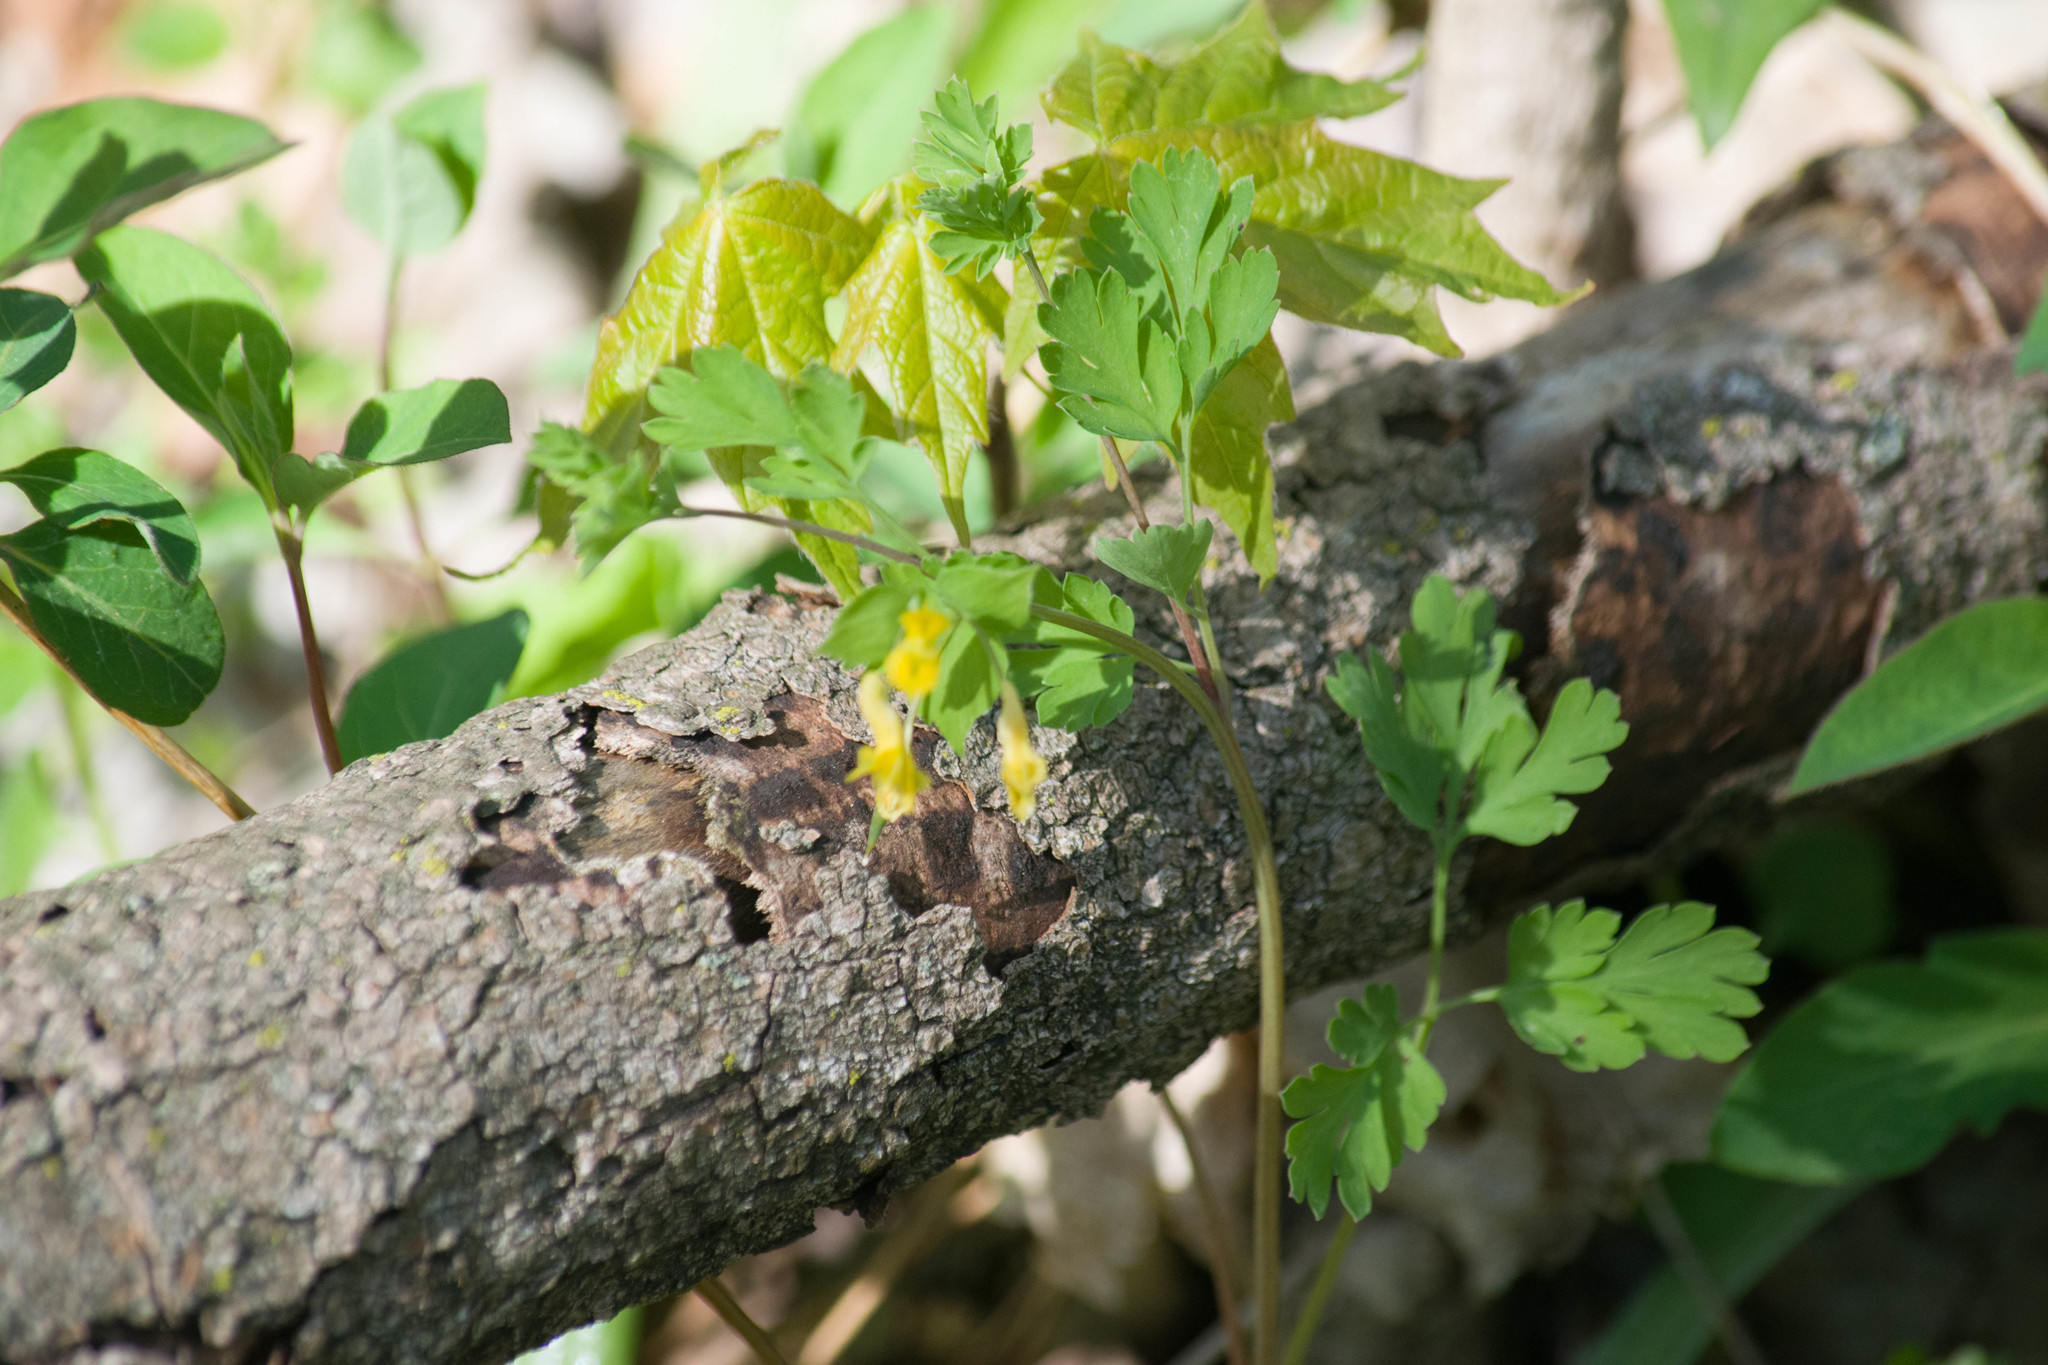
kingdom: Plantae
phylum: Tracheophyta
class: Magnoliopsida
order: Ranunculales
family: Papaveraceae
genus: Corydalis
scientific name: Corydalis flavula
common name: Yellow corydalis
